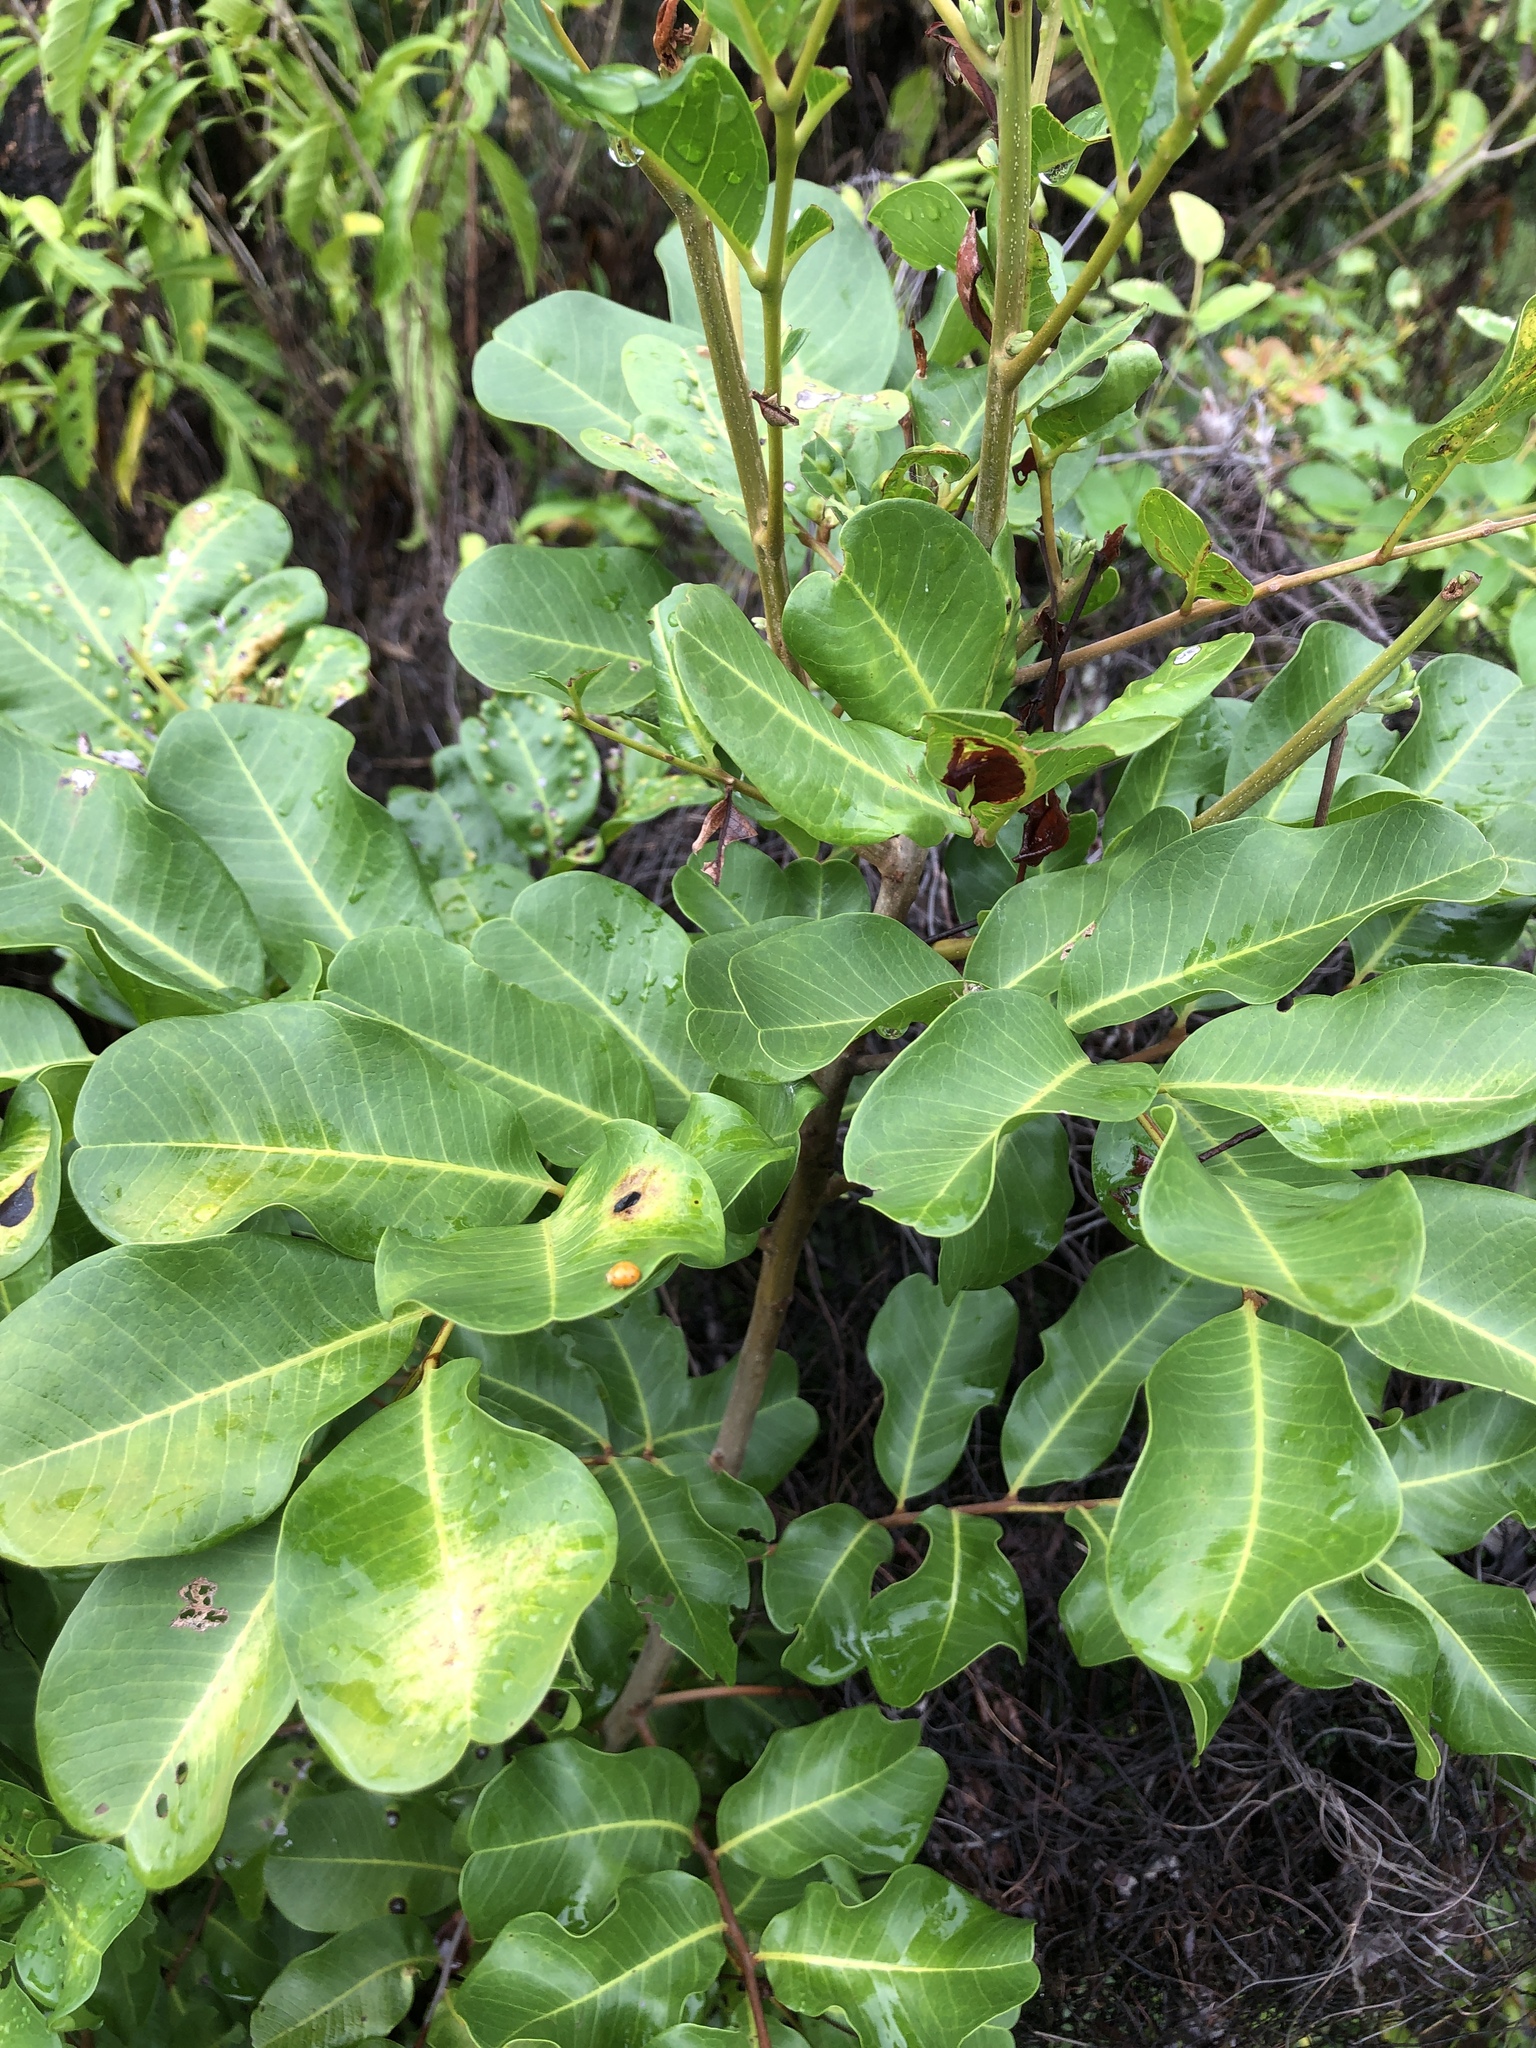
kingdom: Plantae
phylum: Tracheophyta
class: Magnoliopsida
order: Sapindales
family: Sapindaceae
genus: Cupaniopsis
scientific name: Cupaniopsis anacardioides
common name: Carrotwood
